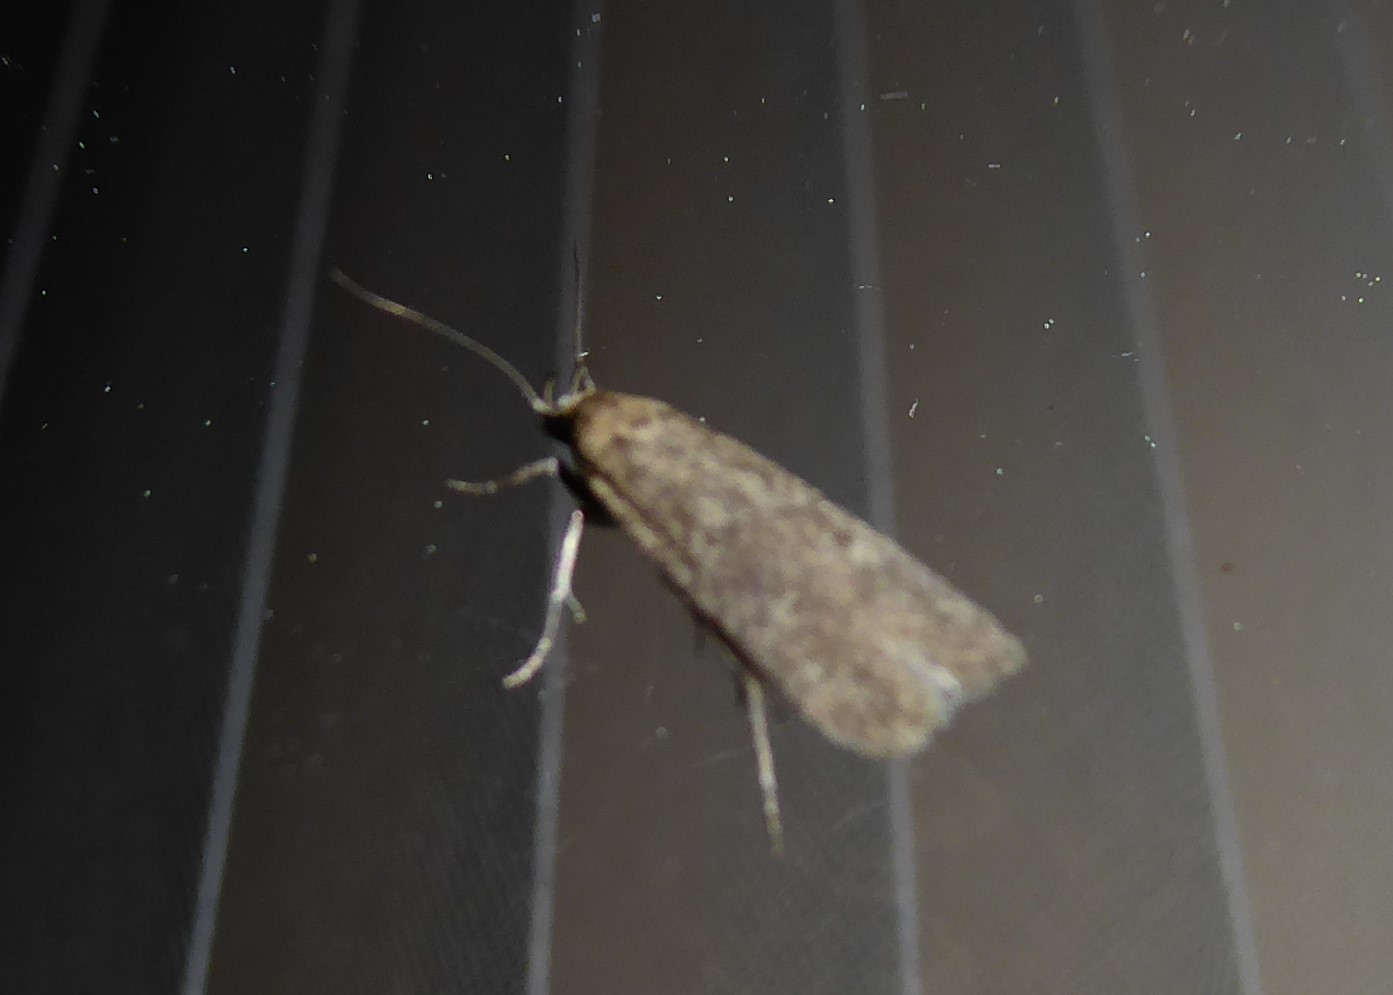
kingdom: Animalia
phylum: Arthropoda
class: Insecta
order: Lepidoptera
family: Gelechiidae
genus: Platyedra
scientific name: Platyedra subcinerea
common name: Moth
